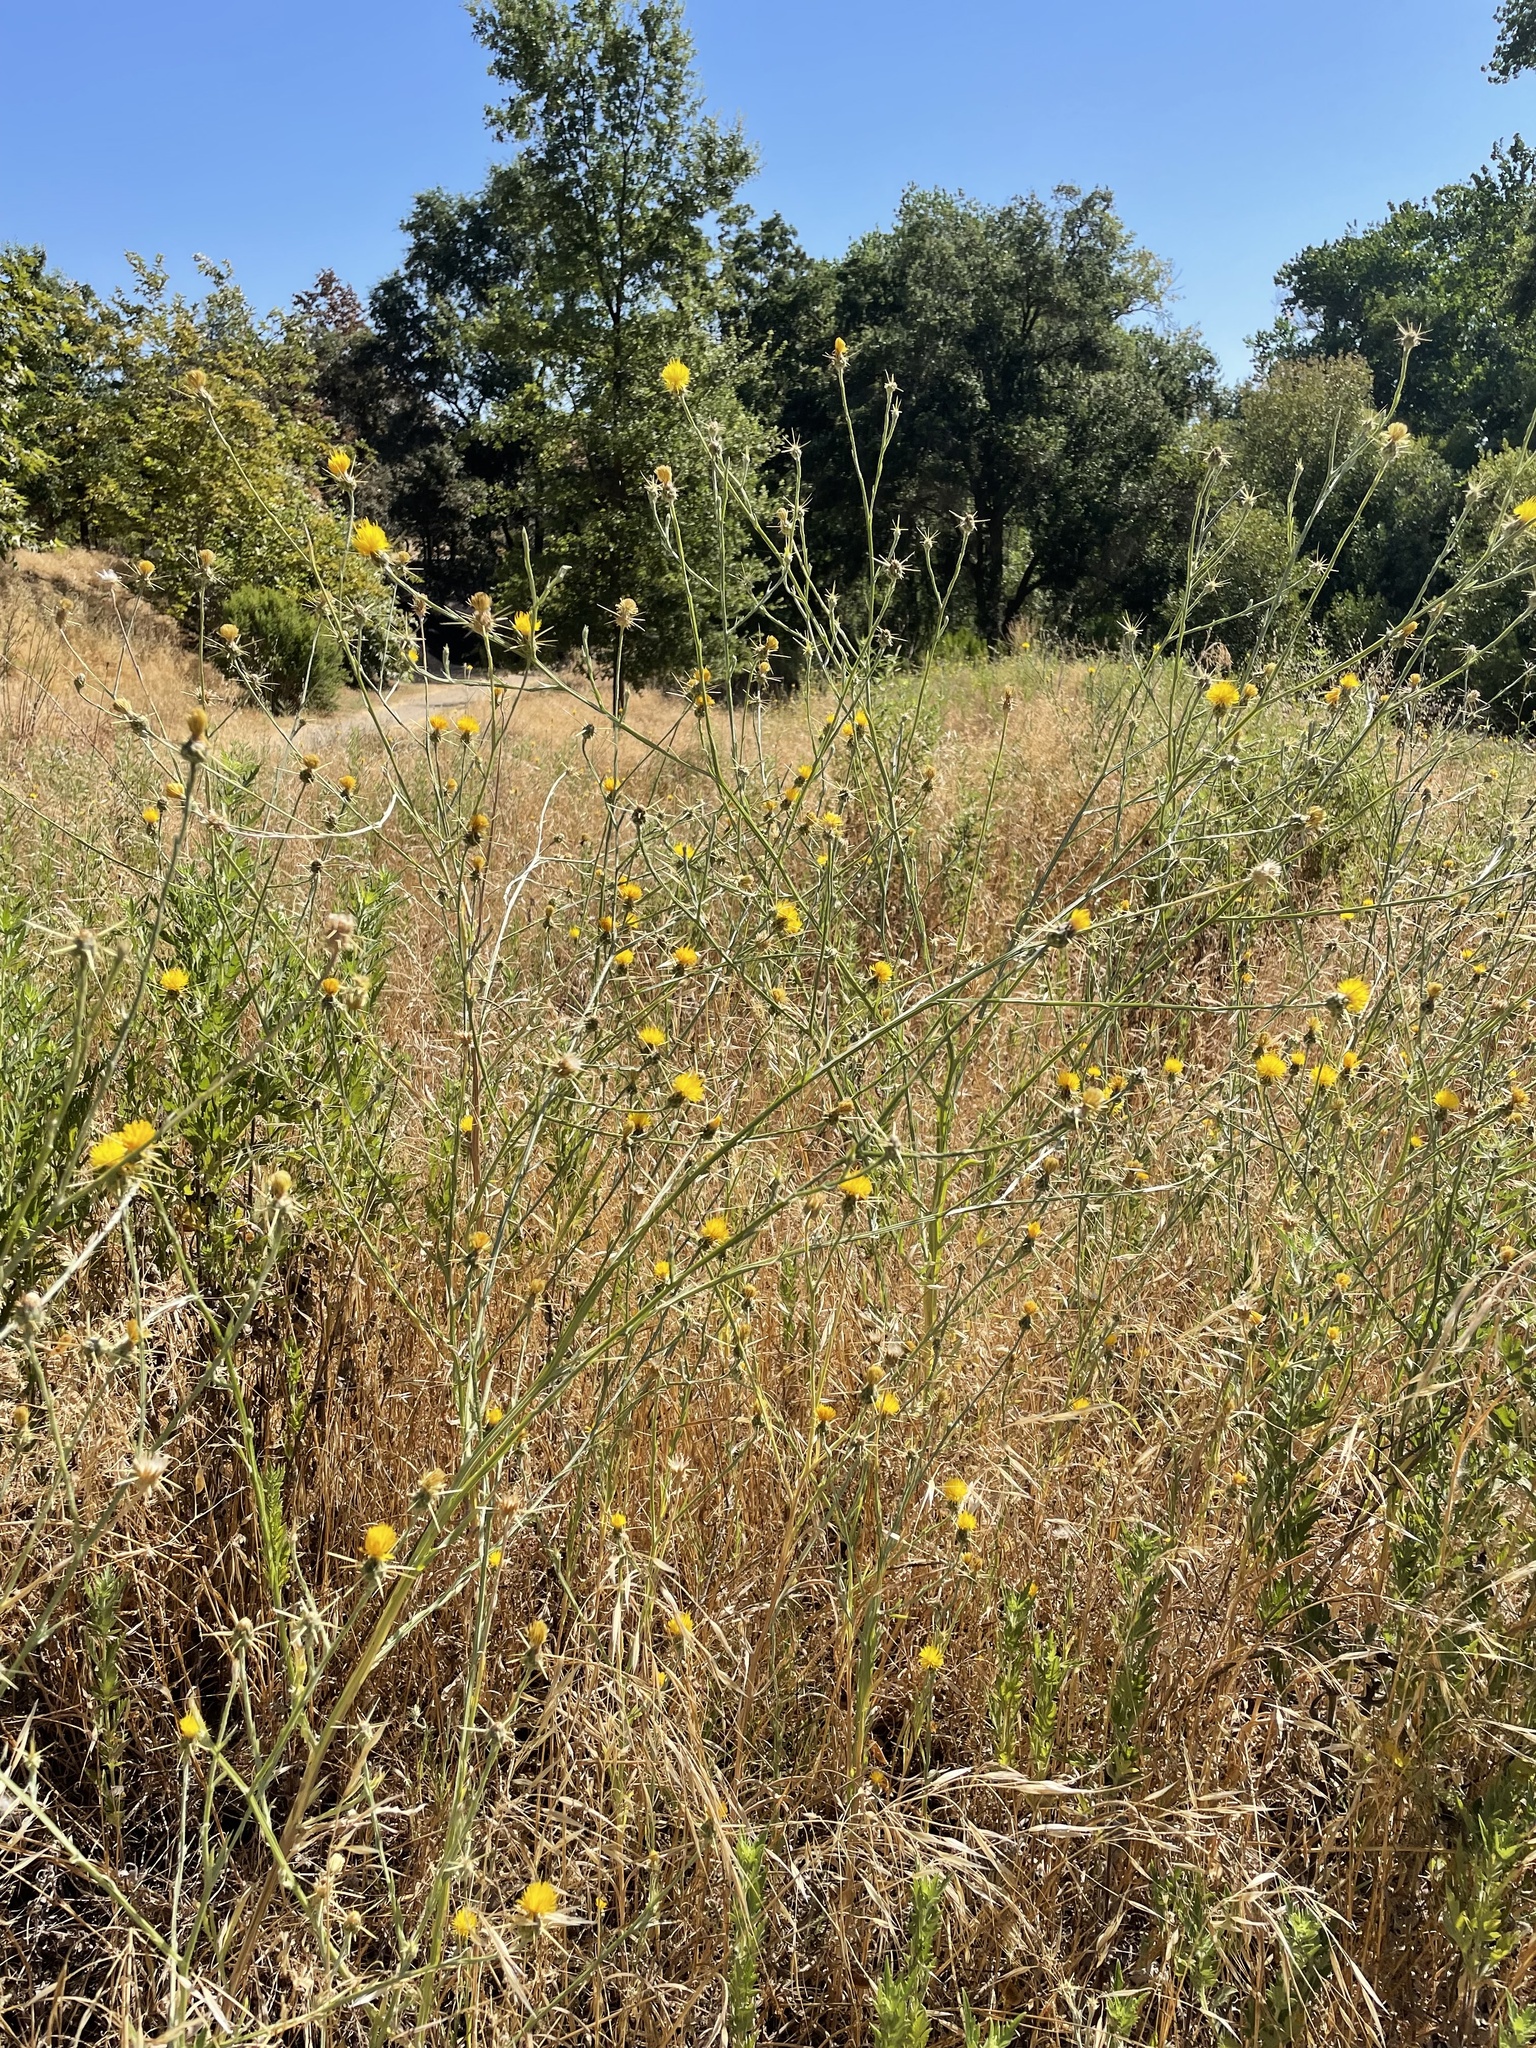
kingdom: Plantae
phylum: Tracheophyta
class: Magnoliopsida
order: Asterales
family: Asteraceae
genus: Centaurea
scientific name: Centaurea solstitialis
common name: Yellow star-thistle
